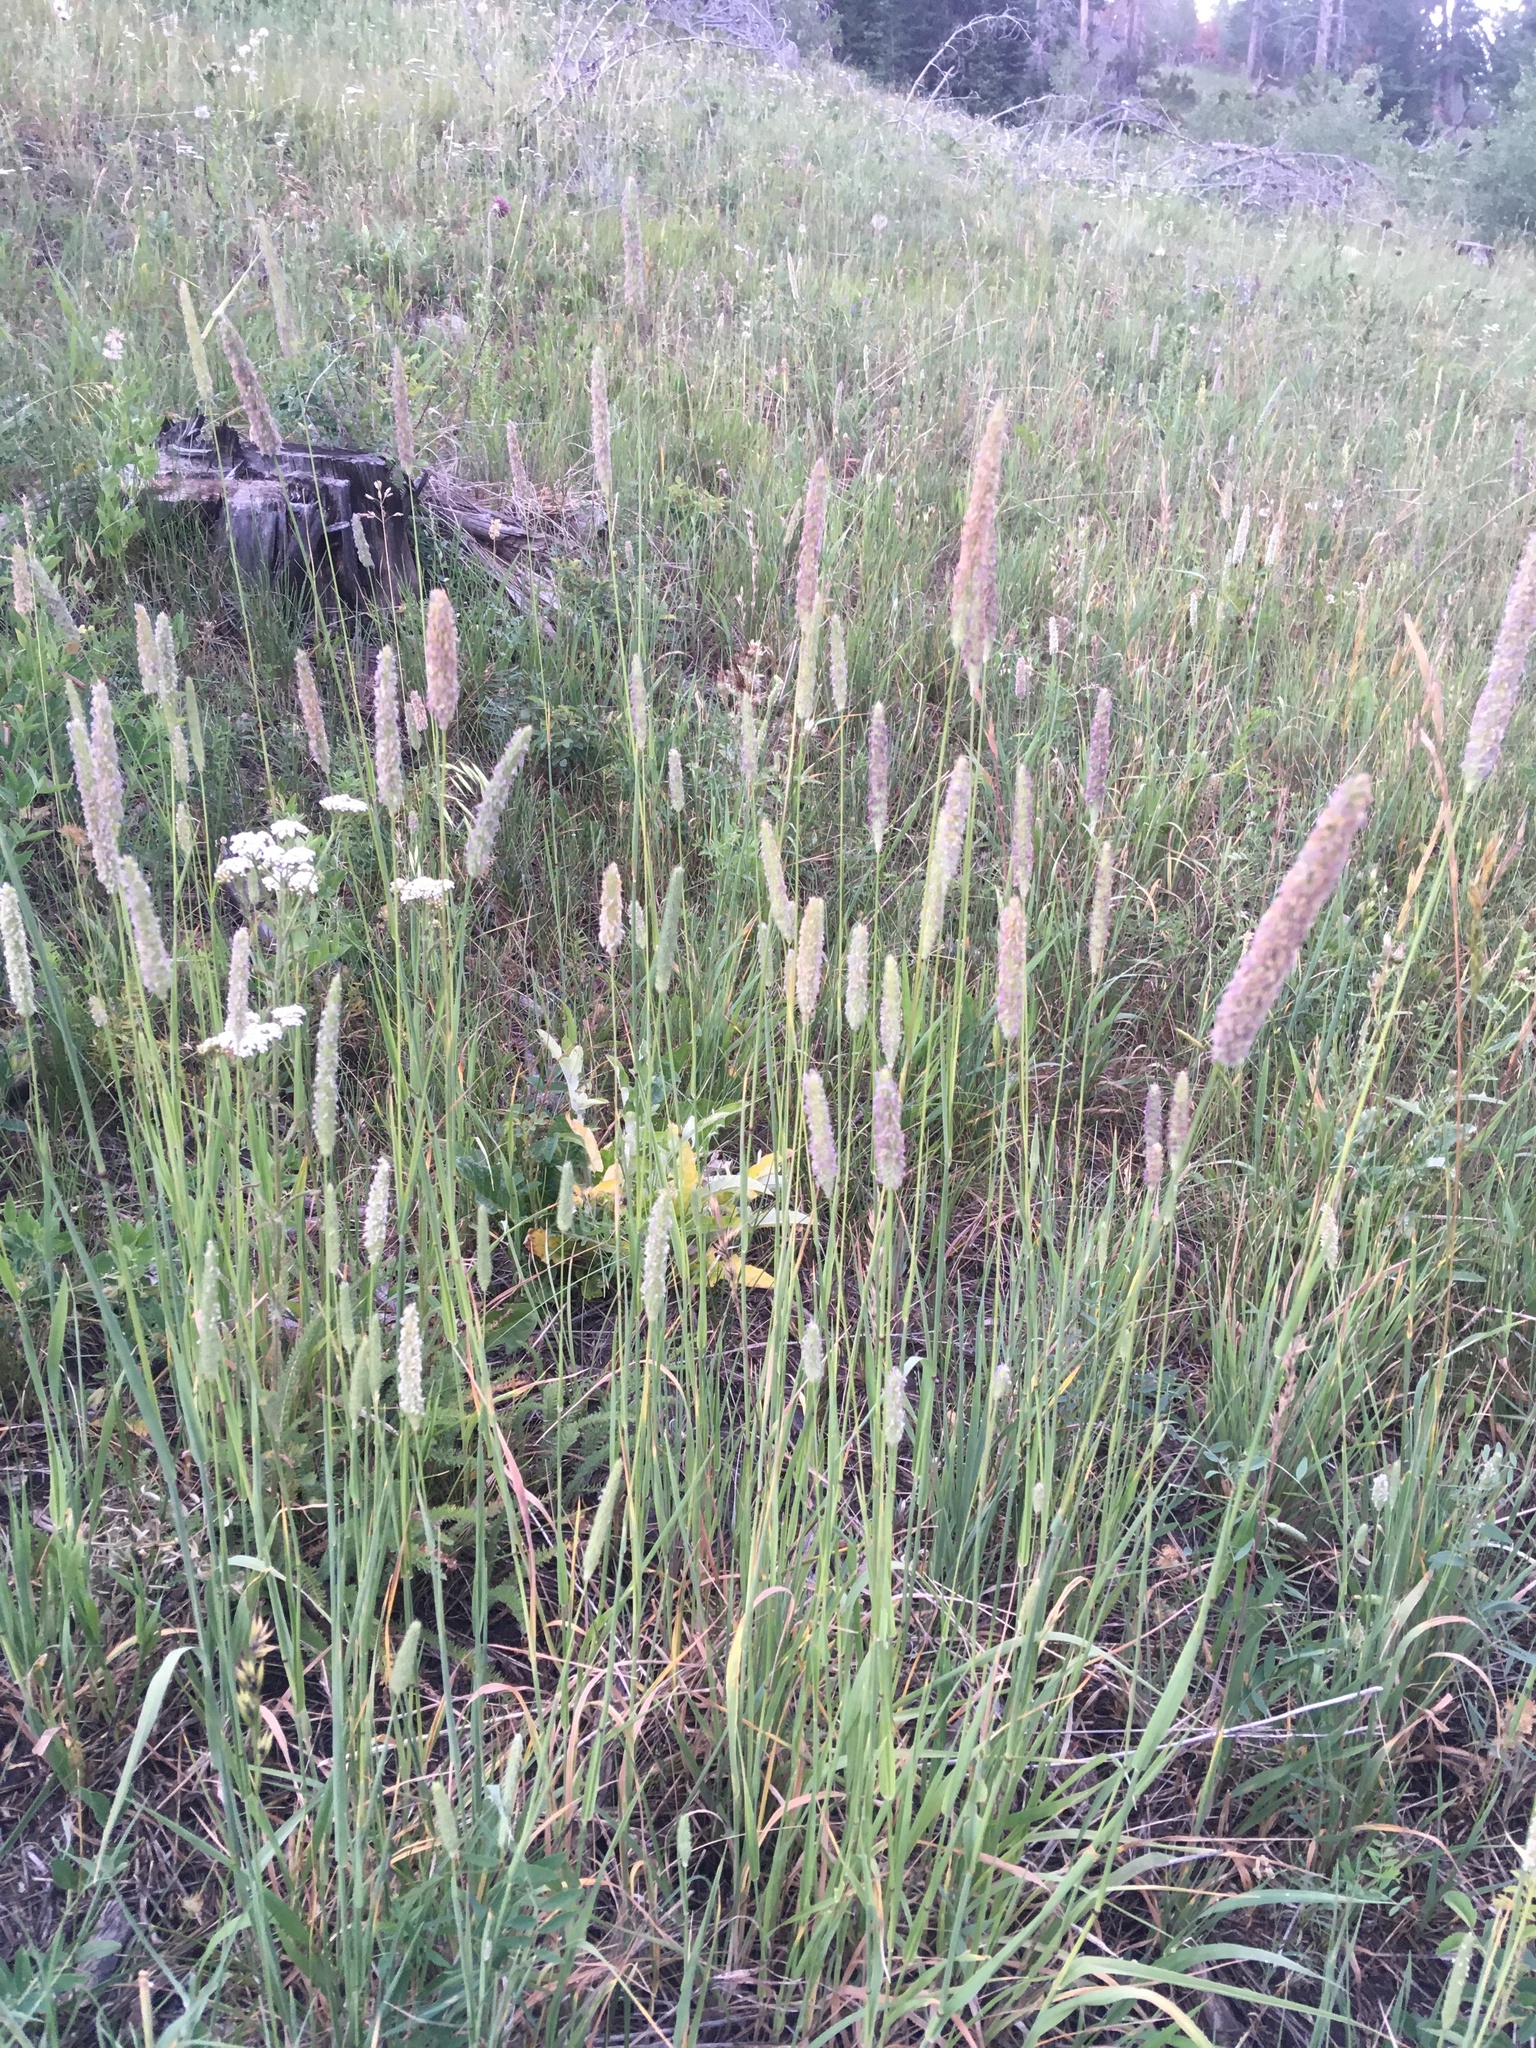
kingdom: Plantae
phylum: Tracheophyta
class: Liliopsida
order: Poales
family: Poaceae
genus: Phleum
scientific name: Phleum pratense
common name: Timothy grass
